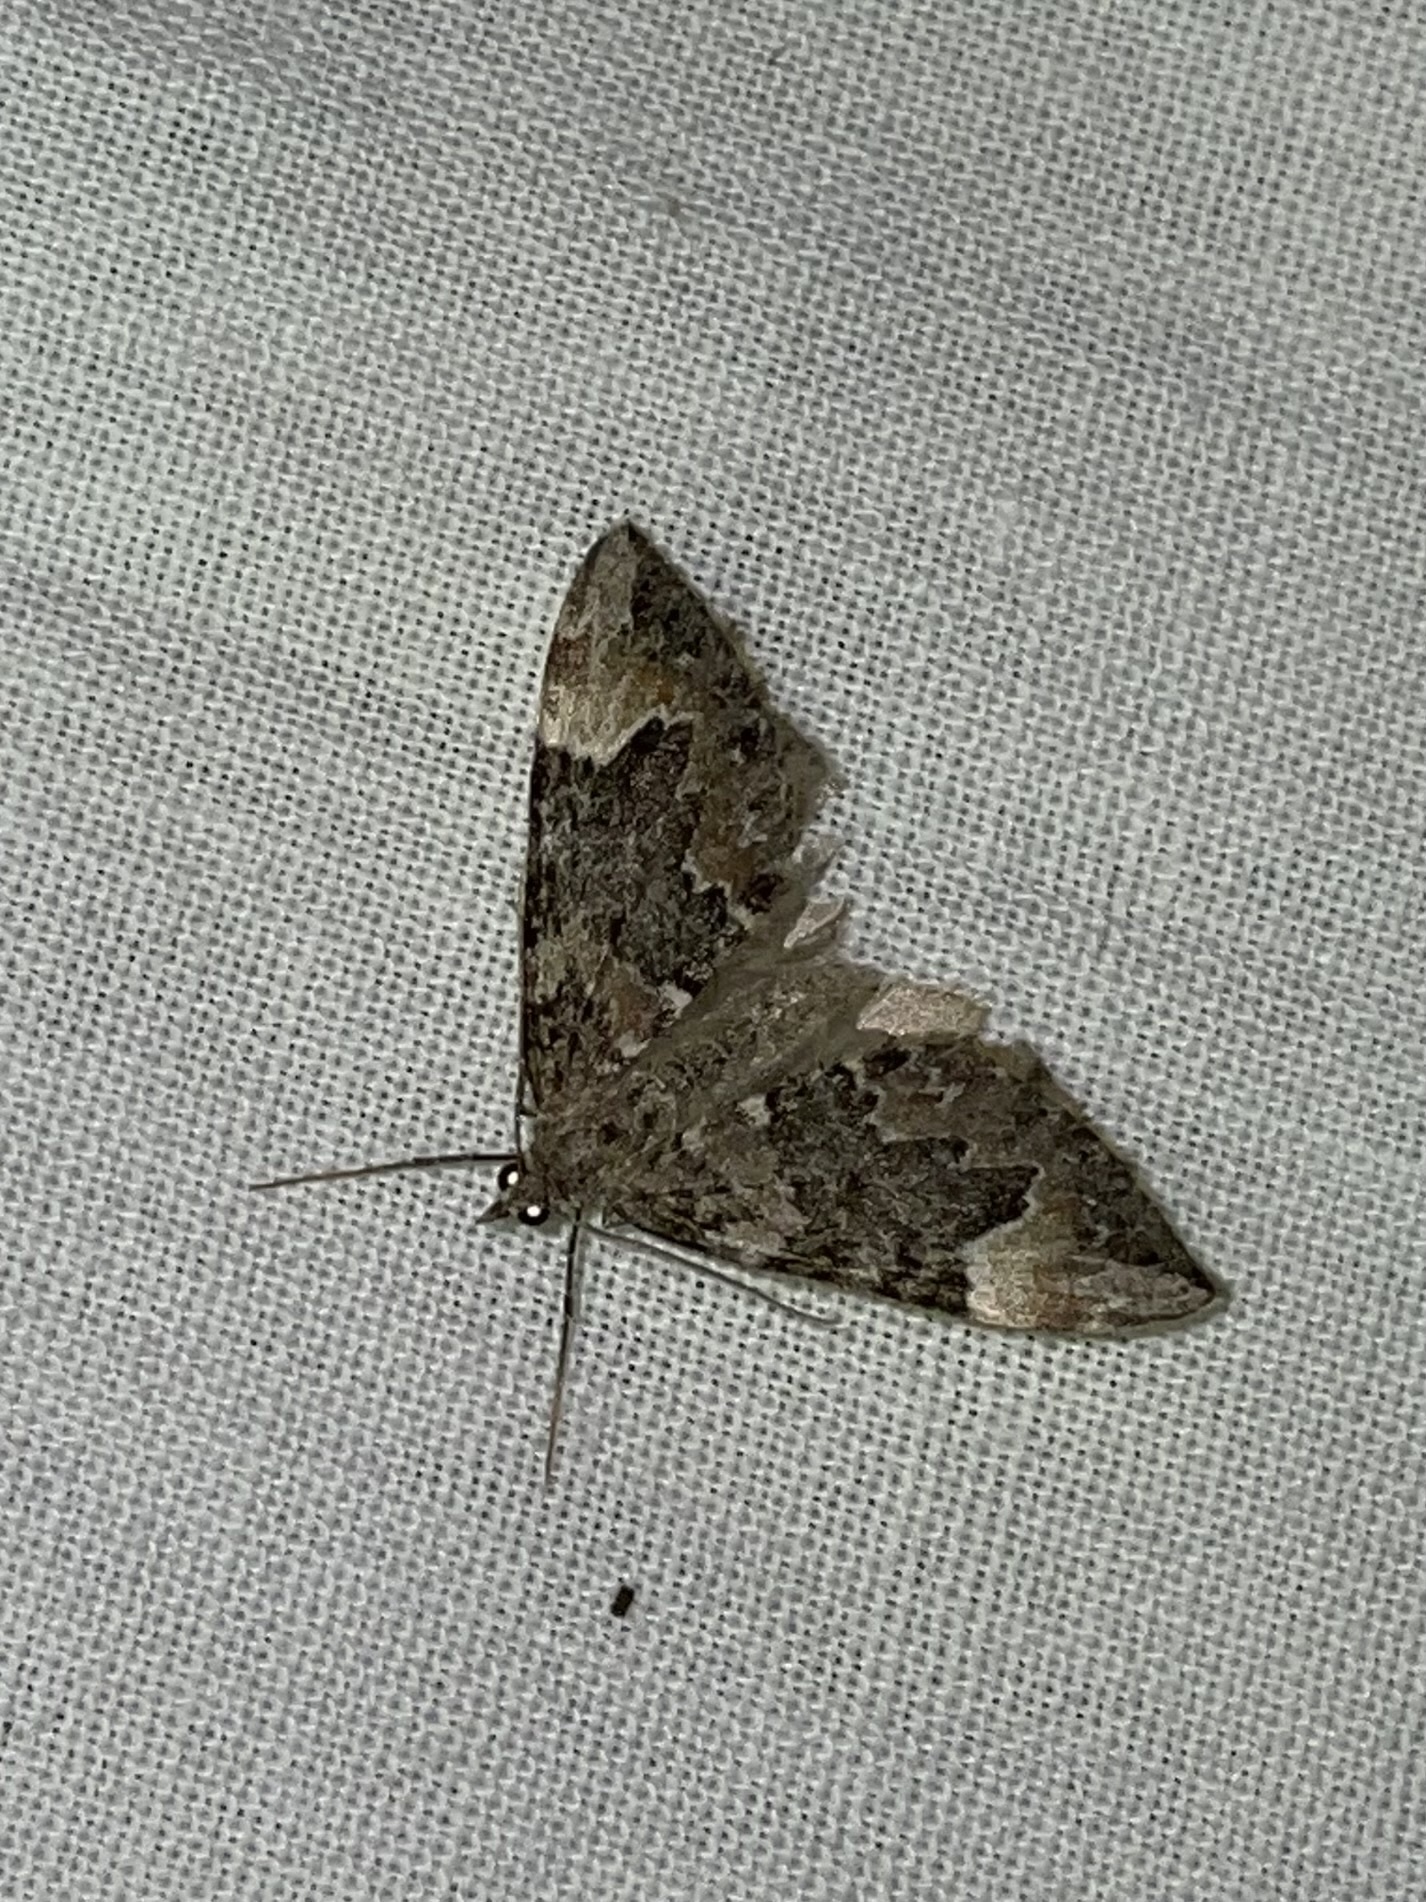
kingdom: Animalia
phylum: Arthropoda
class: Insecta
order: Lepidoptera
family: Geometridae
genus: Dysstroma
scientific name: Dysstroma citrata
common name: Dark marbled carpet
